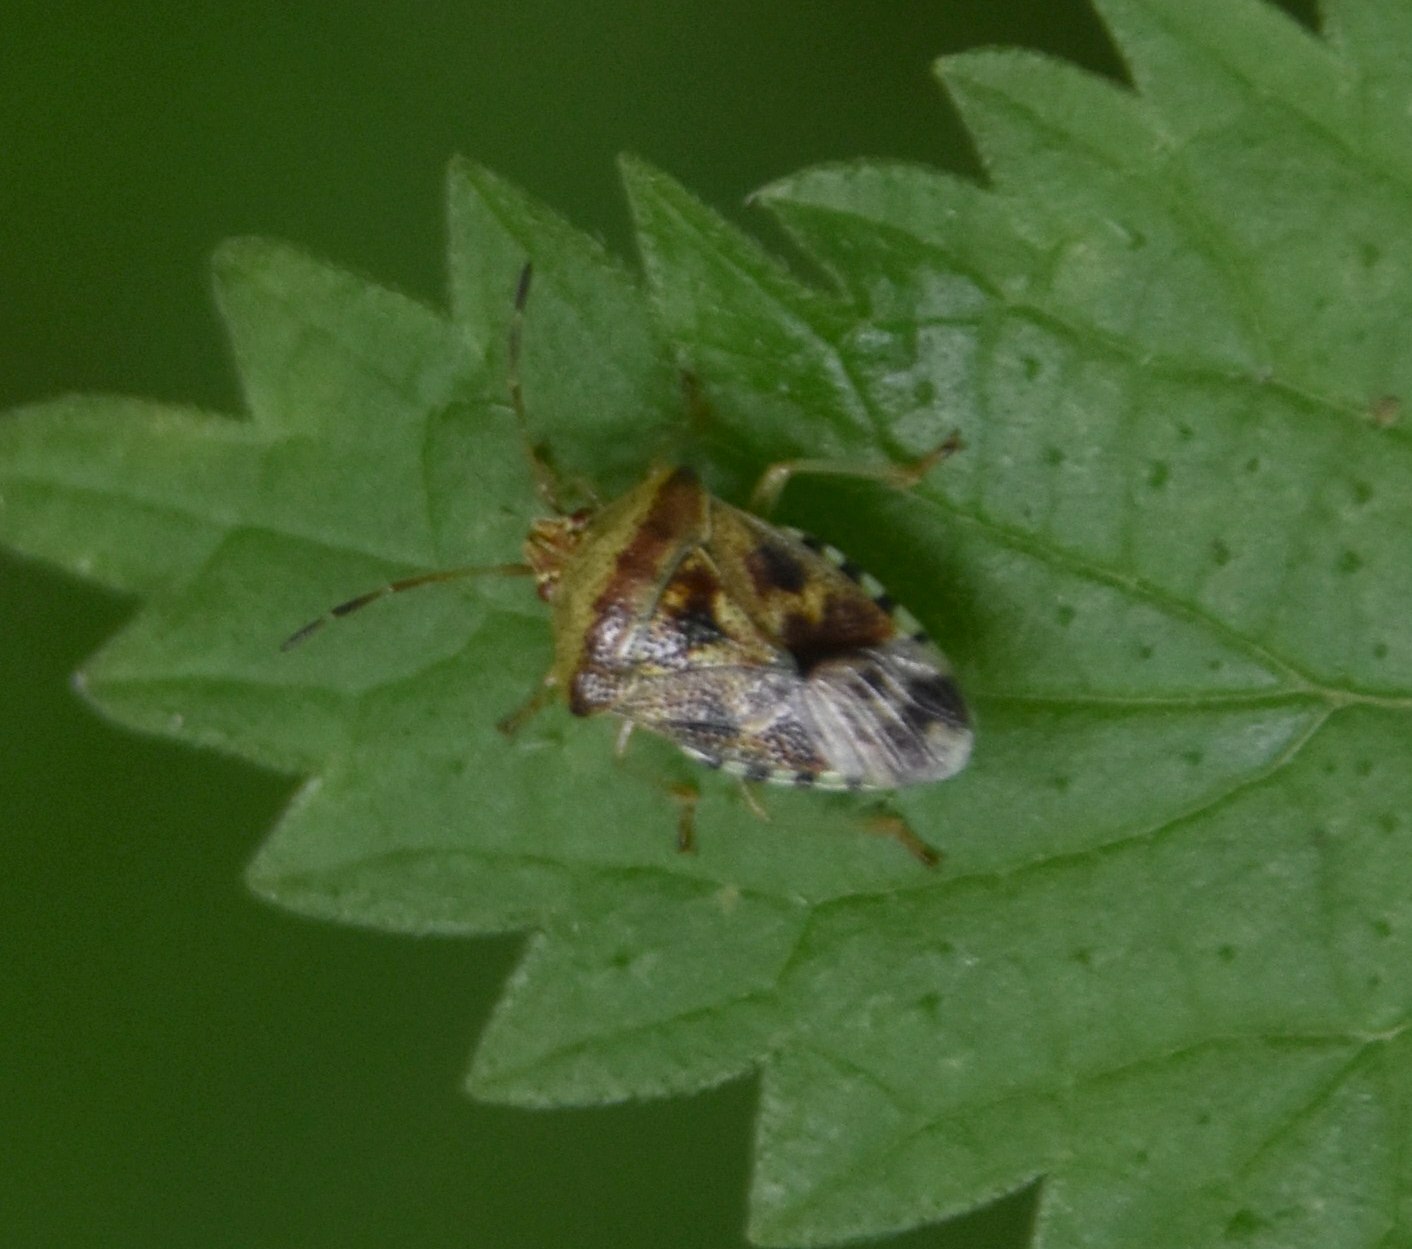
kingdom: Animalia
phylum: Arthropoda
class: Insecta
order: Hemiptera
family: Acanthosomatidae
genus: Elasmucha
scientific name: Elasmucha grisea
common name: Parent bug
